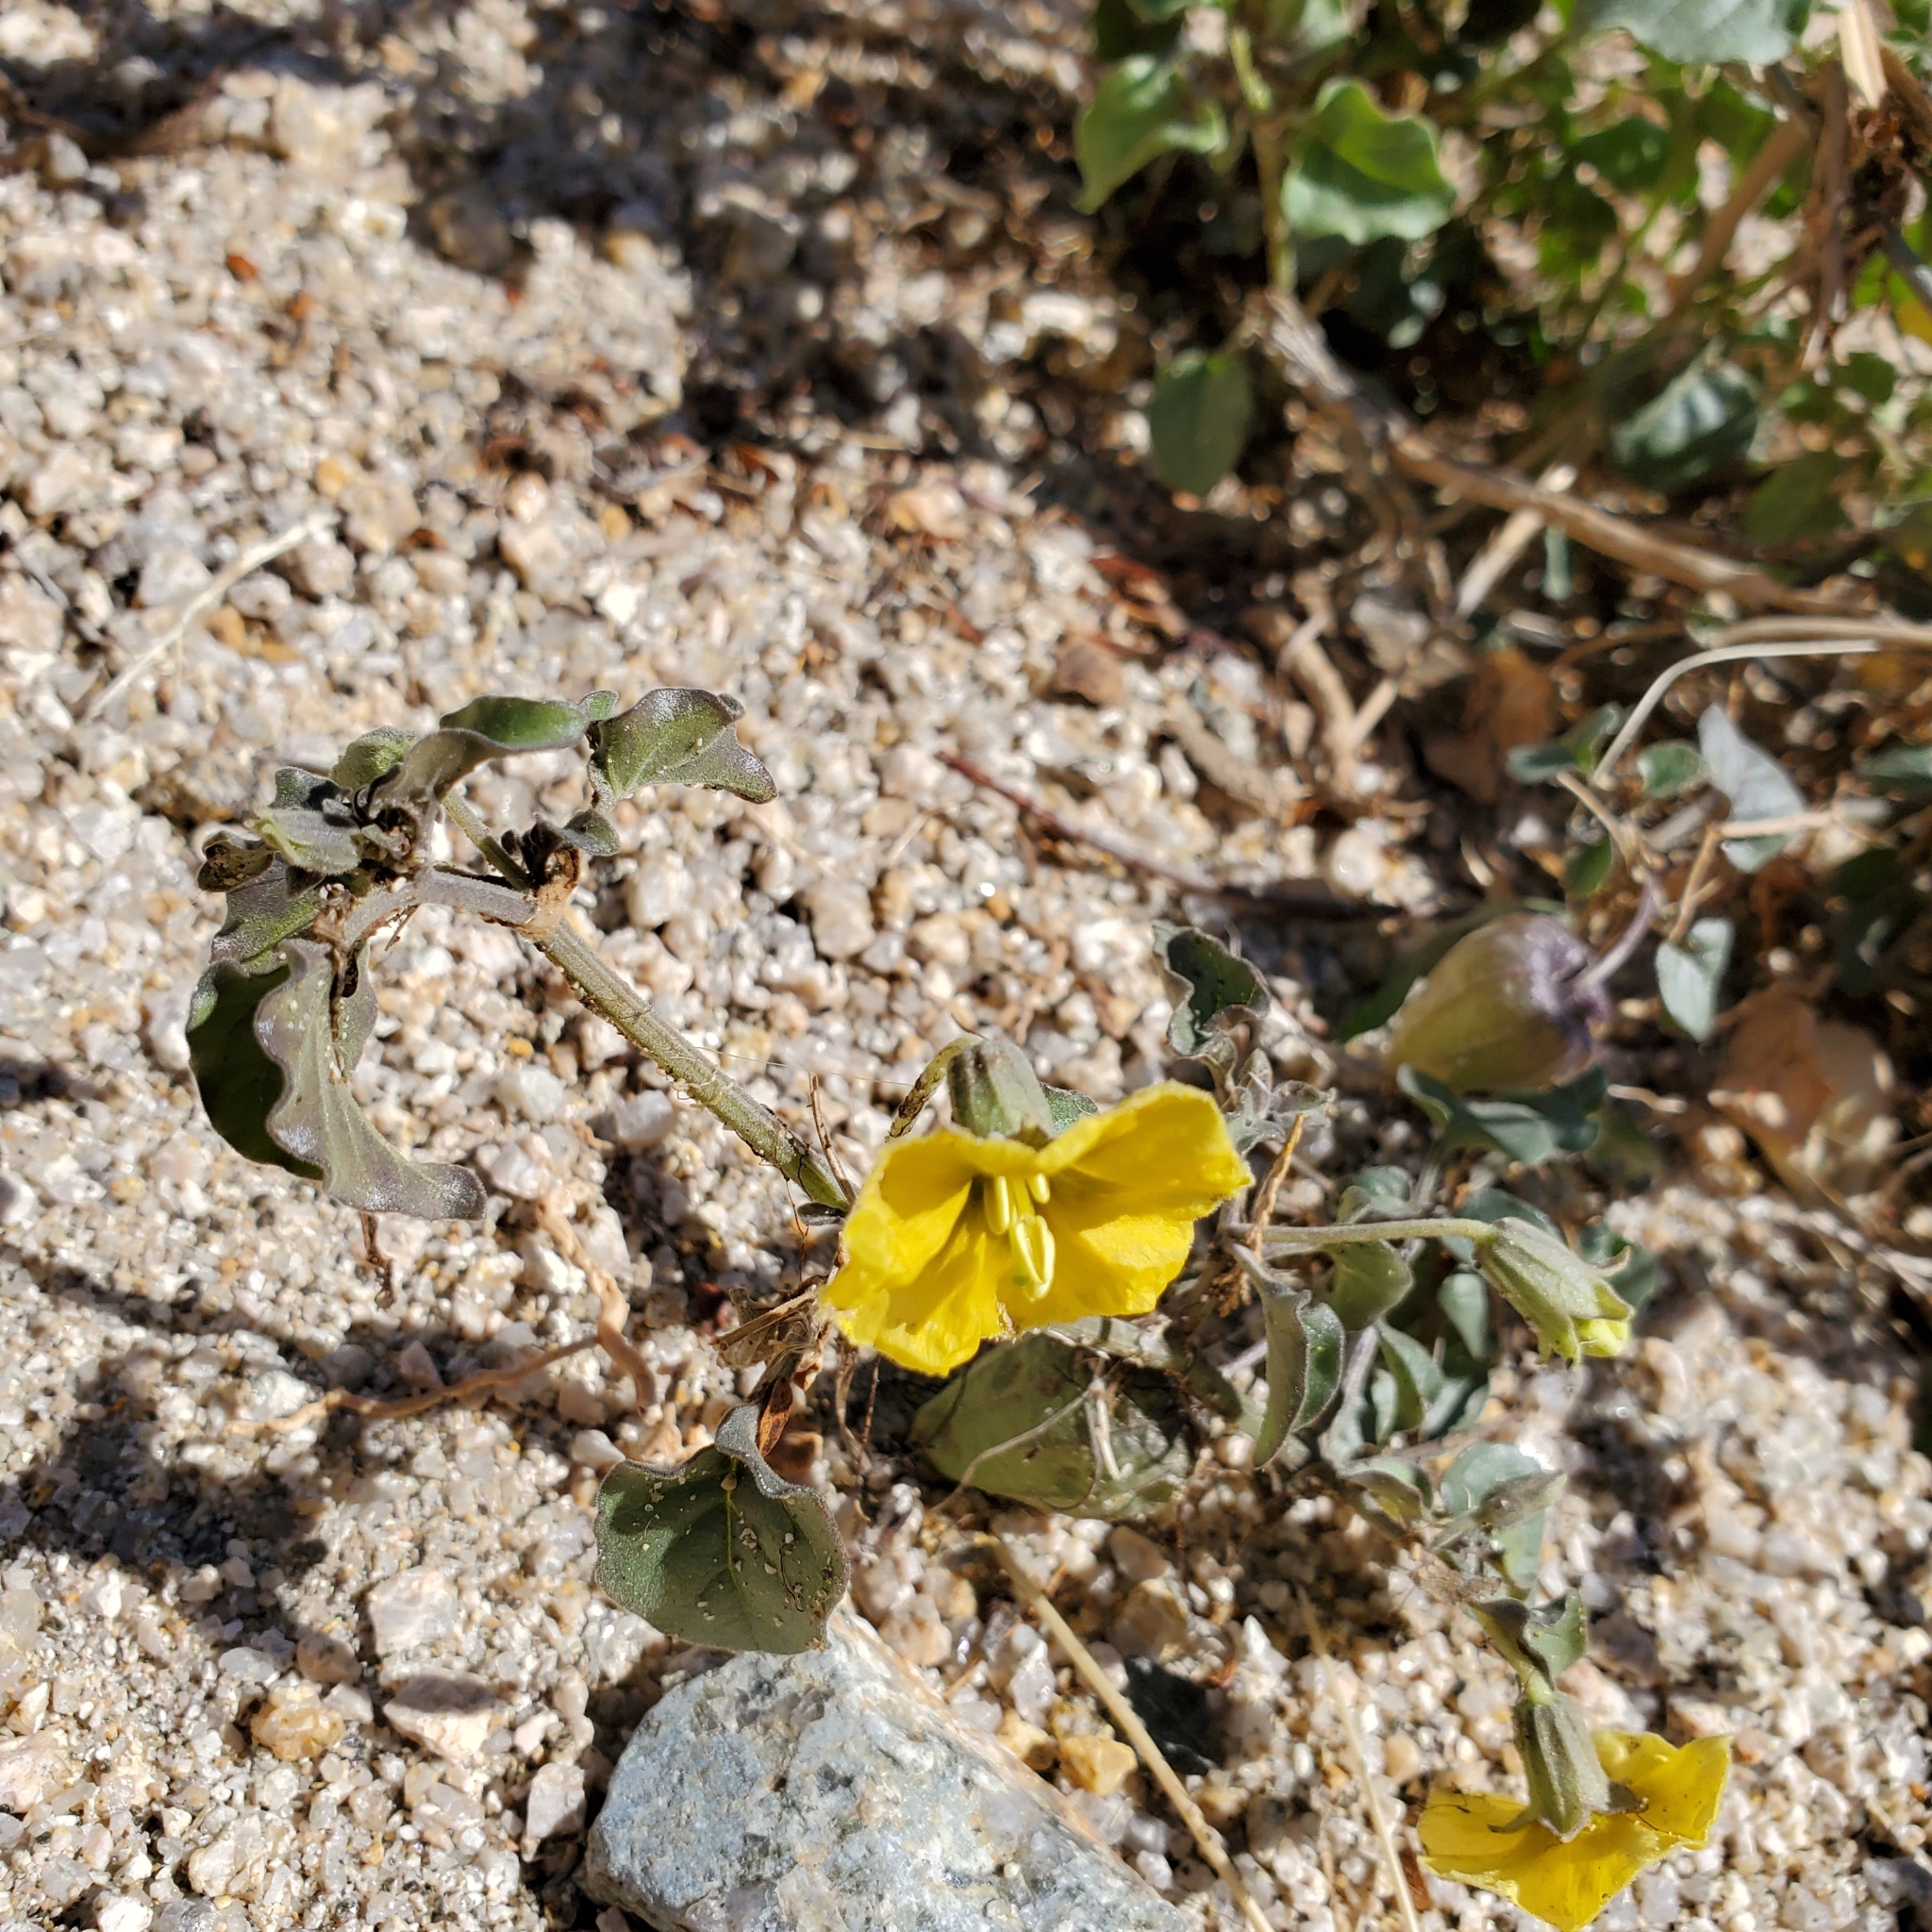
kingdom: Plantae
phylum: Tracheophyta
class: Magnoliopsida
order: Solanales
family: Solanaceae
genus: Physalis
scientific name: Physalis crassifolia
